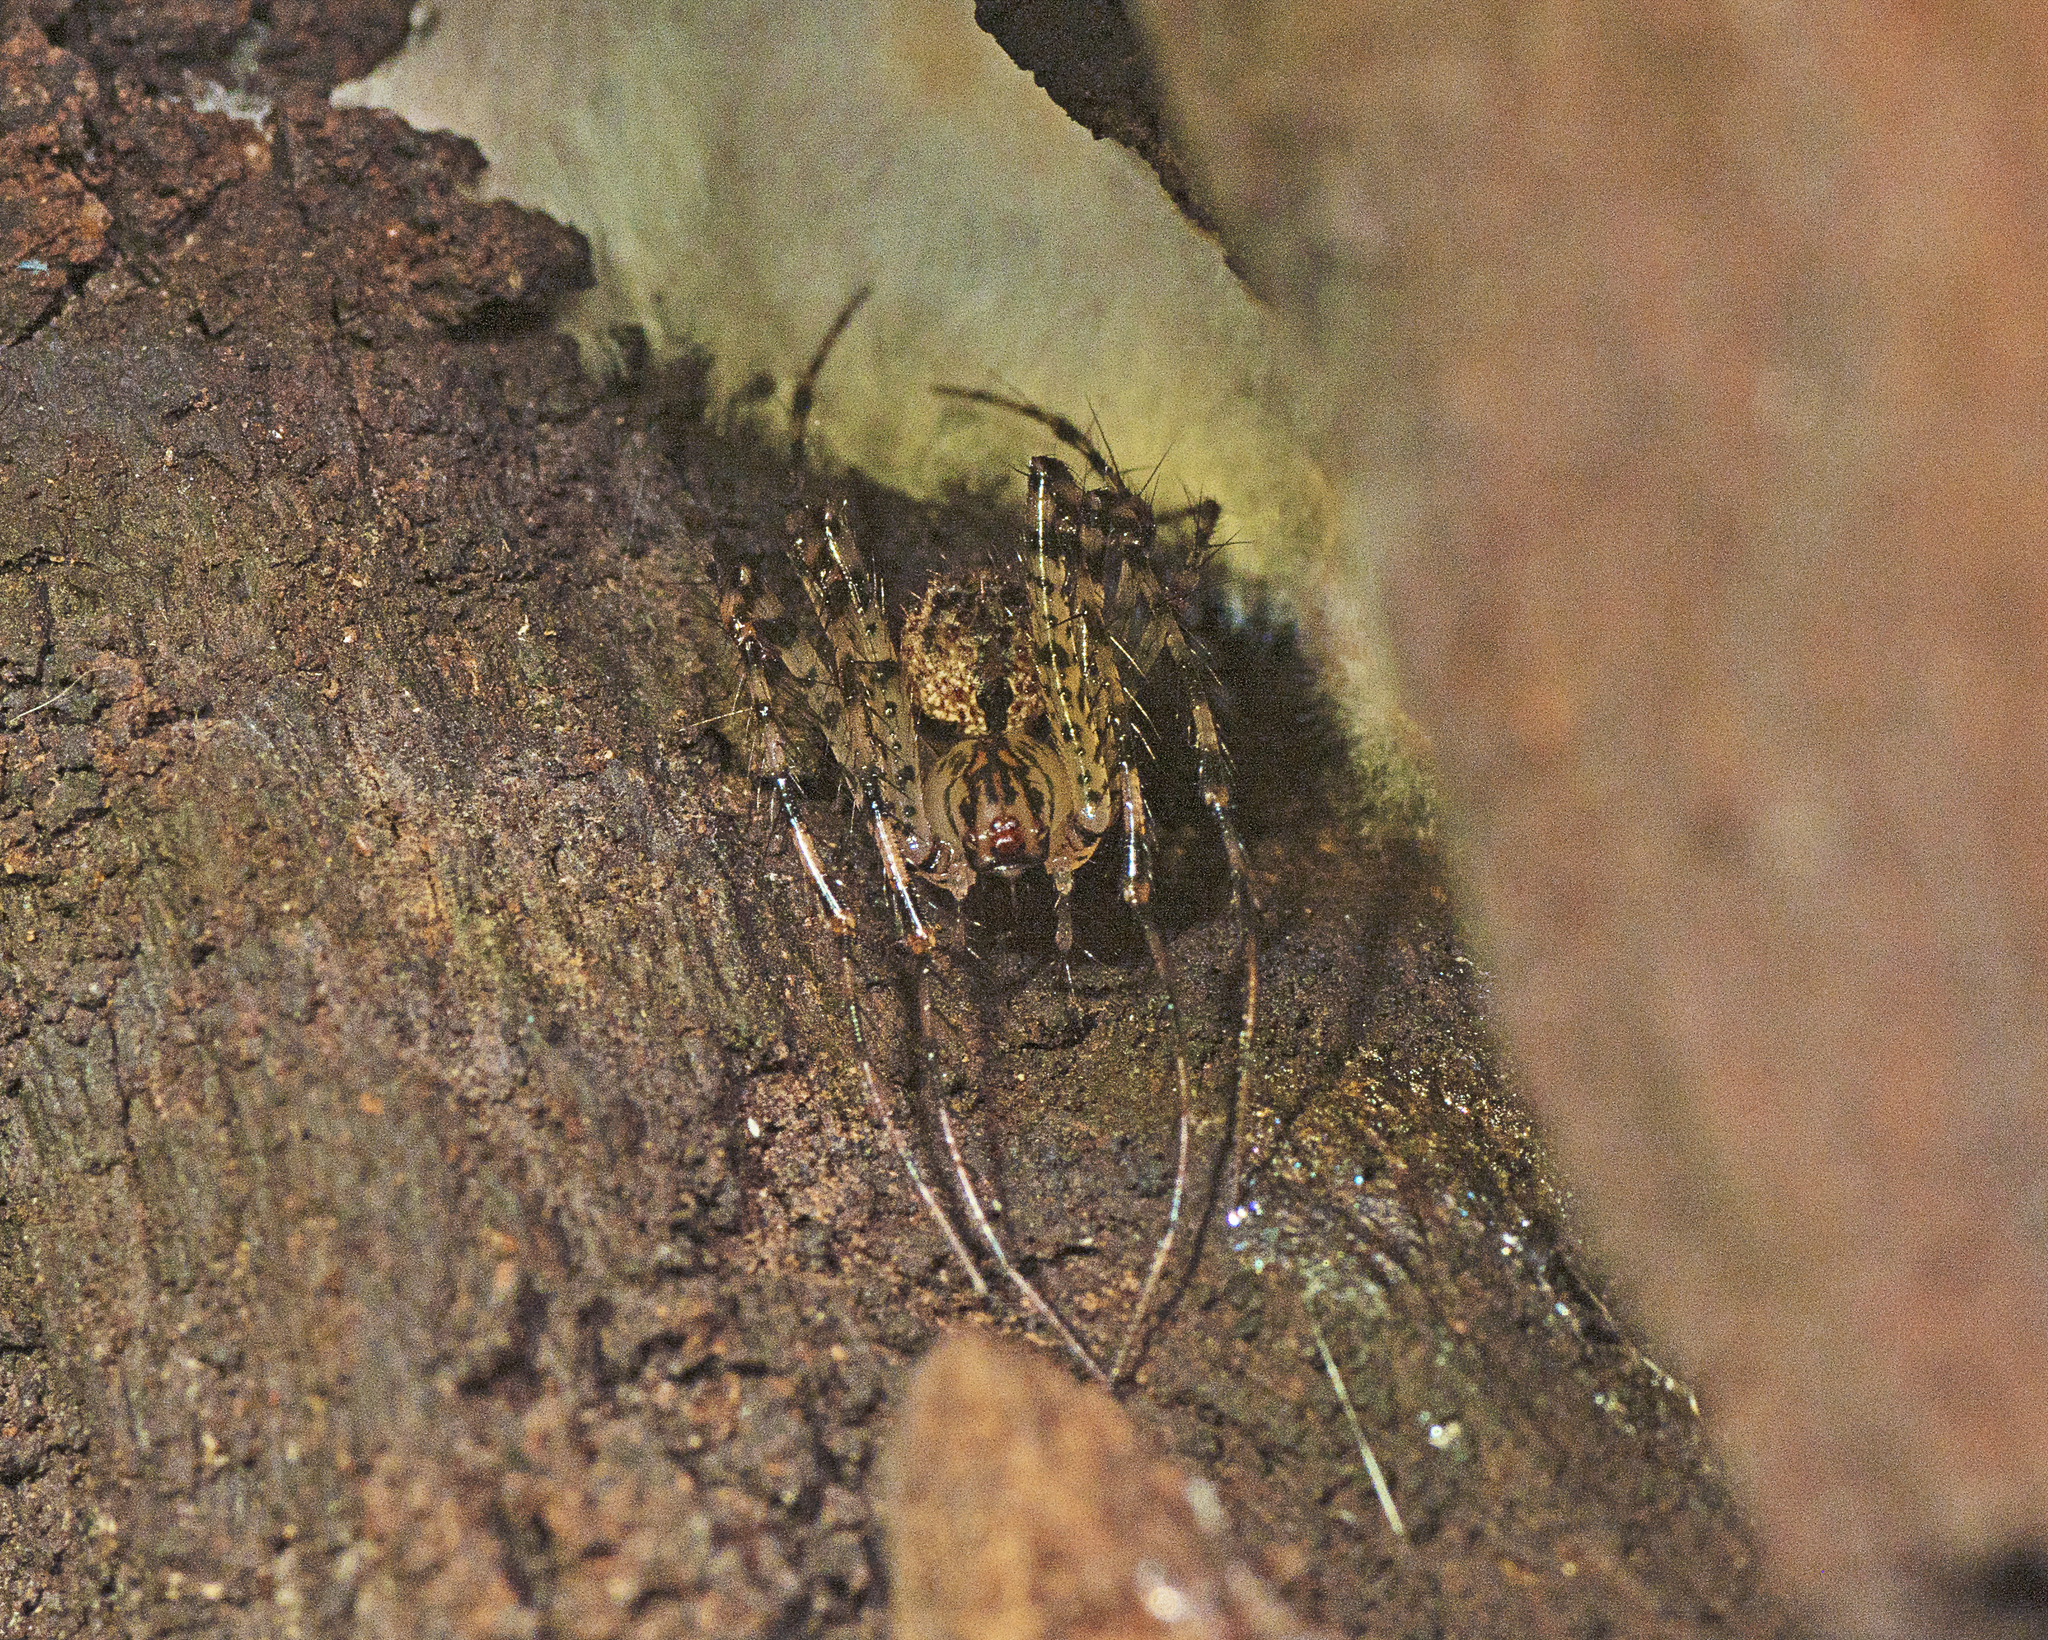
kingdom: Animalia
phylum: Arthropoda
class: Arachnida
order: Araneae
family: Mimetidae
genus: Australomimetus
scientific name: Australomimetus maculosus
